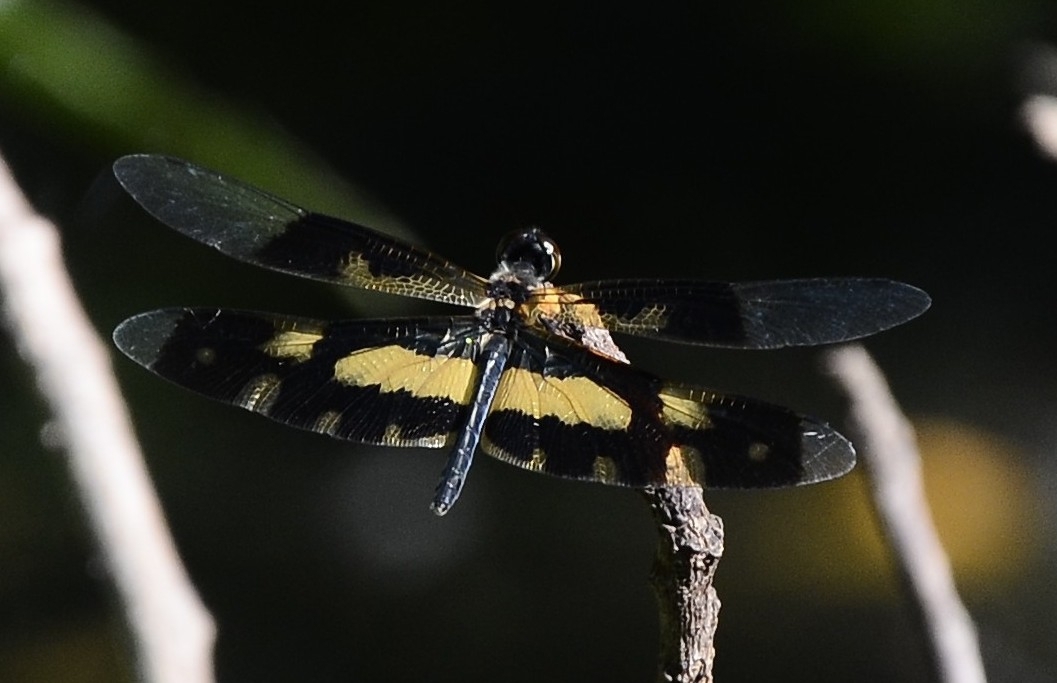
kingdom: Animalia
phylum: Arthropoda
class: Insecta
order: Odonata
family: Libellulidae
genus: Rhyothemis
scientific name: Rhyothemis variegata
